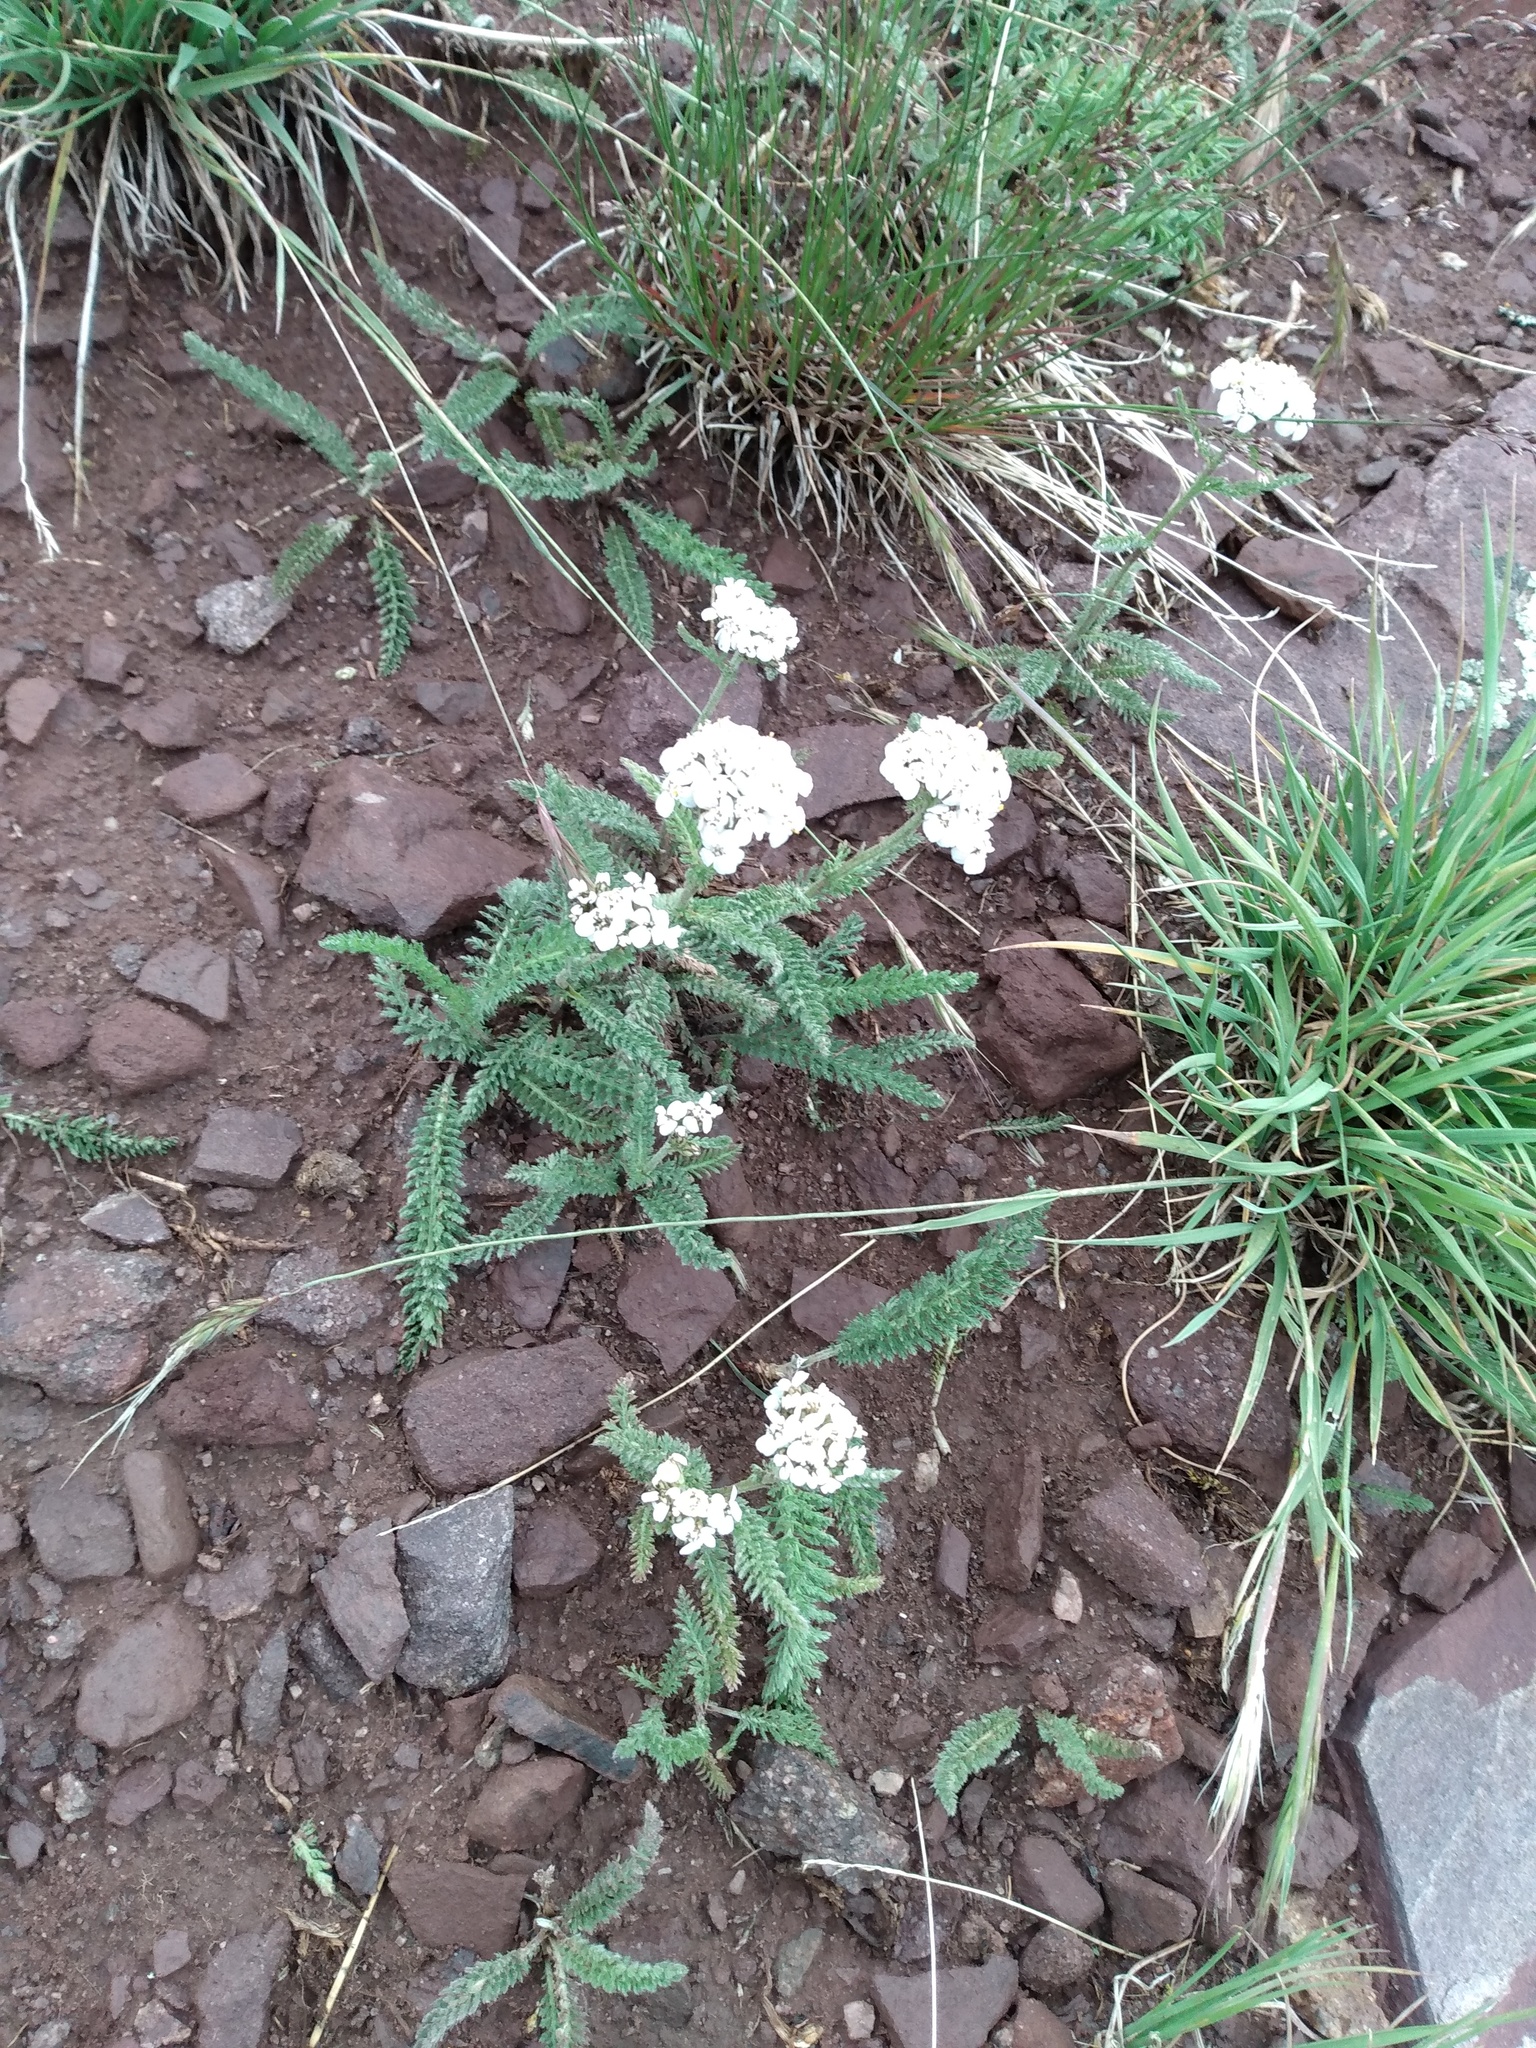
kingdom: Plantae
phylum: Tracheophyta
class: Magnoliopsida
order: Asterales
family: Asteraceae
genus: Achillea
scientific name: Achillea millefolium
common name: Yarrow
